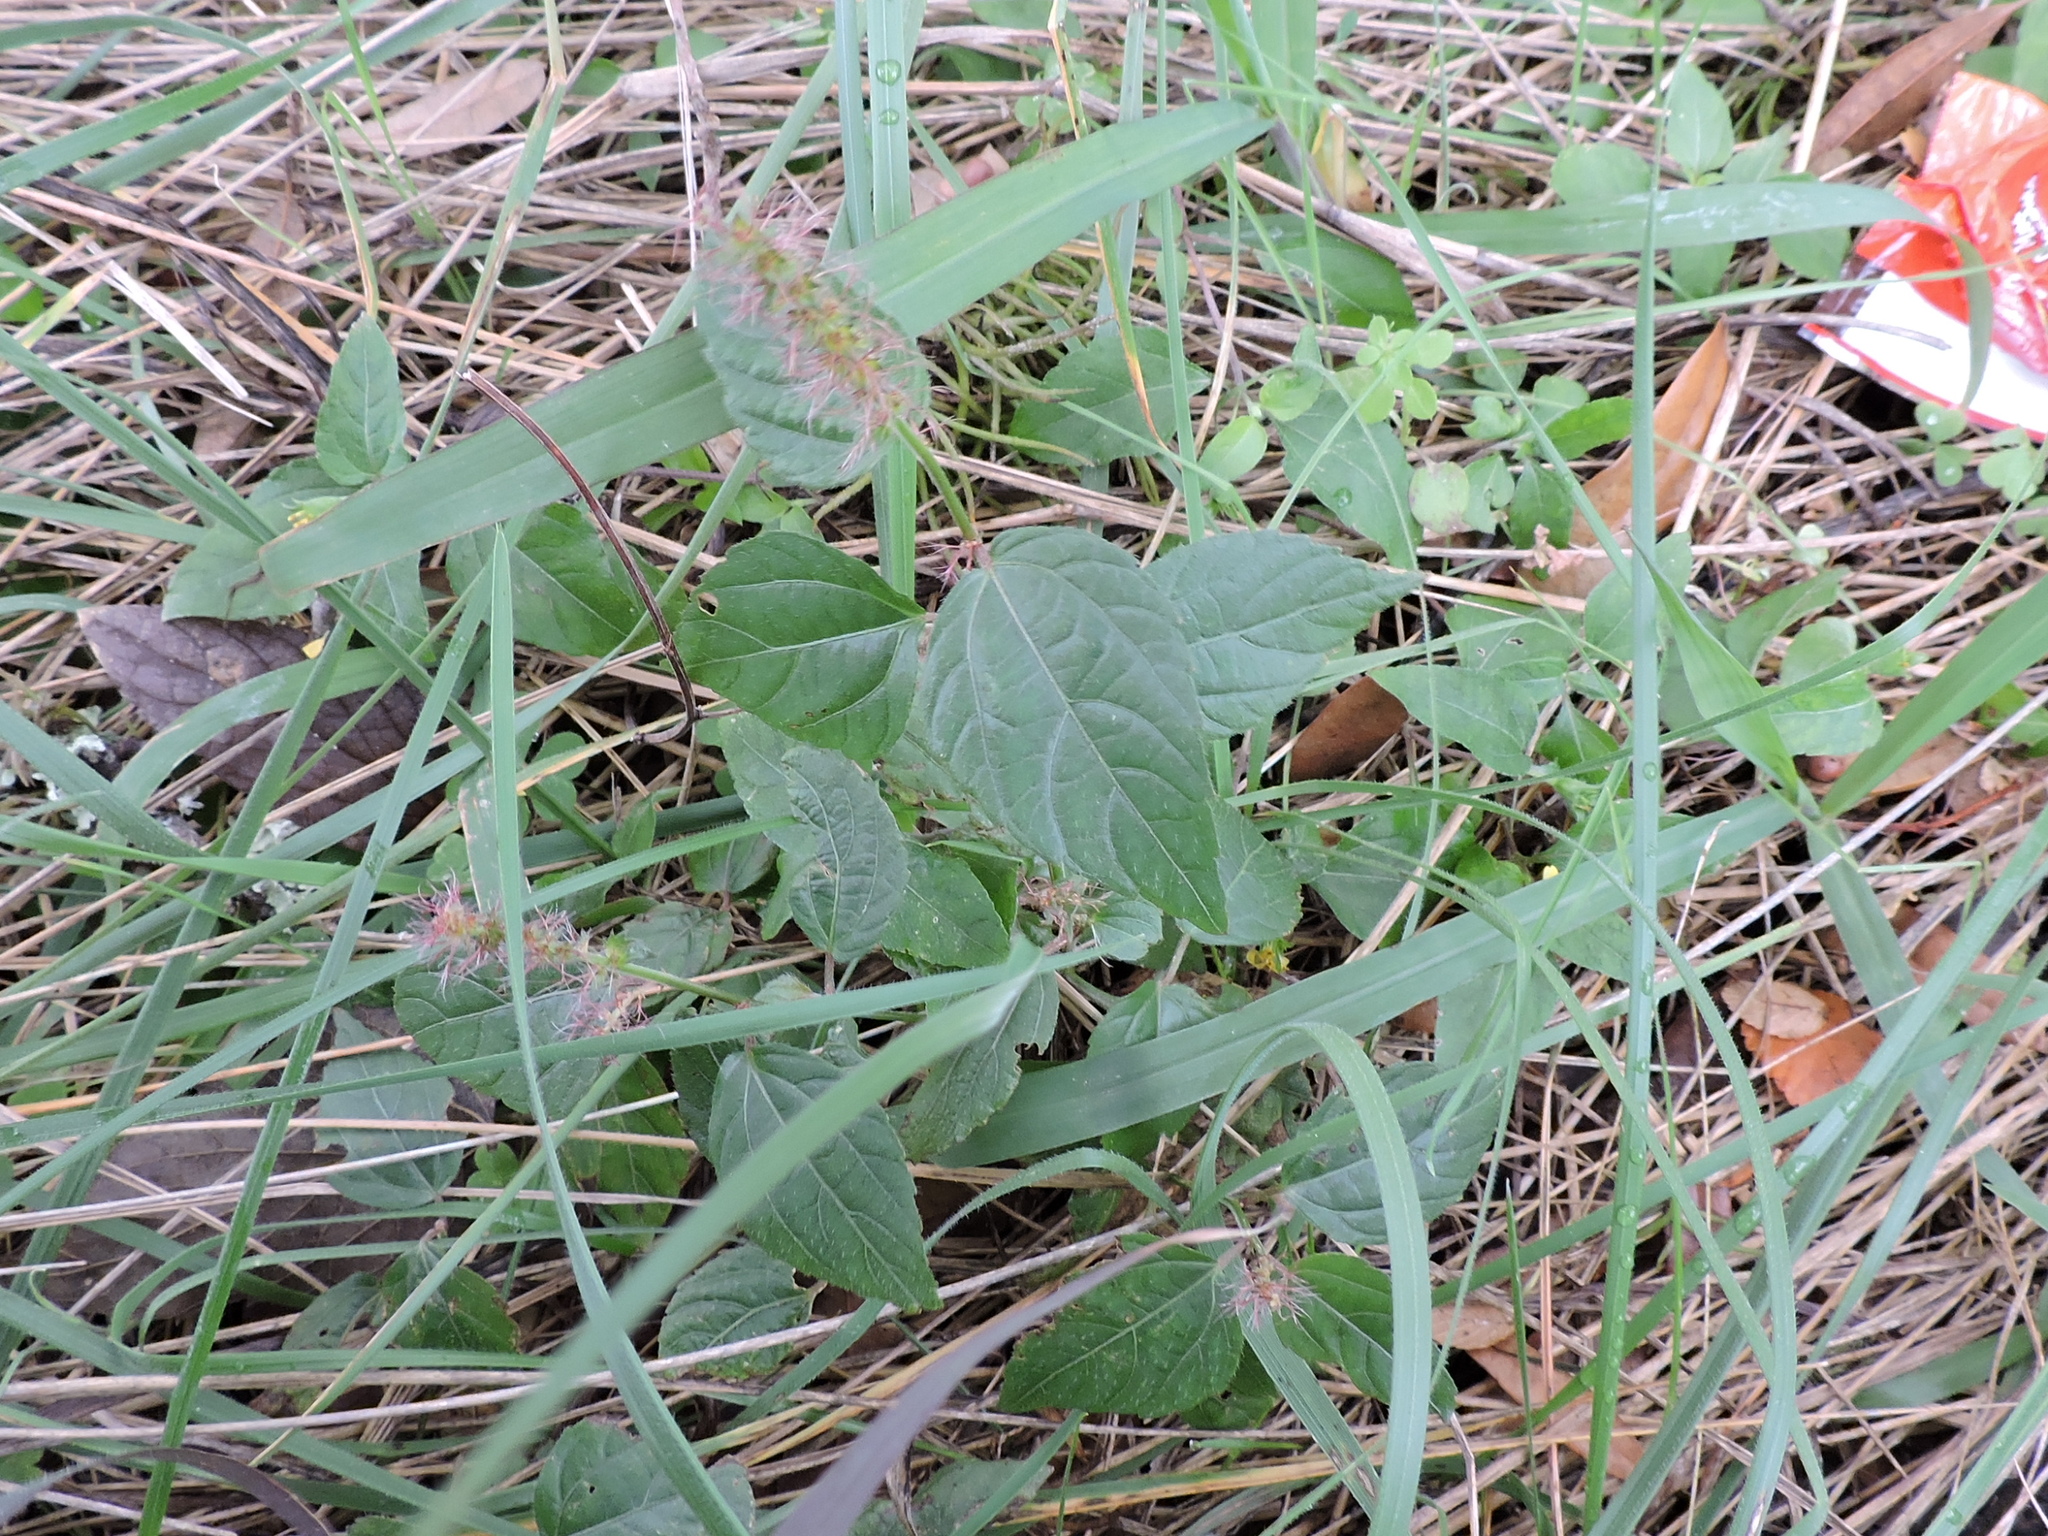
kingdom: Plantae
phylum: Tracheophyta
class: Magnoliopsida
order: Malpighiales
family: Euphorbiaceae
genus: Acalypha
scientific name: Acalypha phleoides
